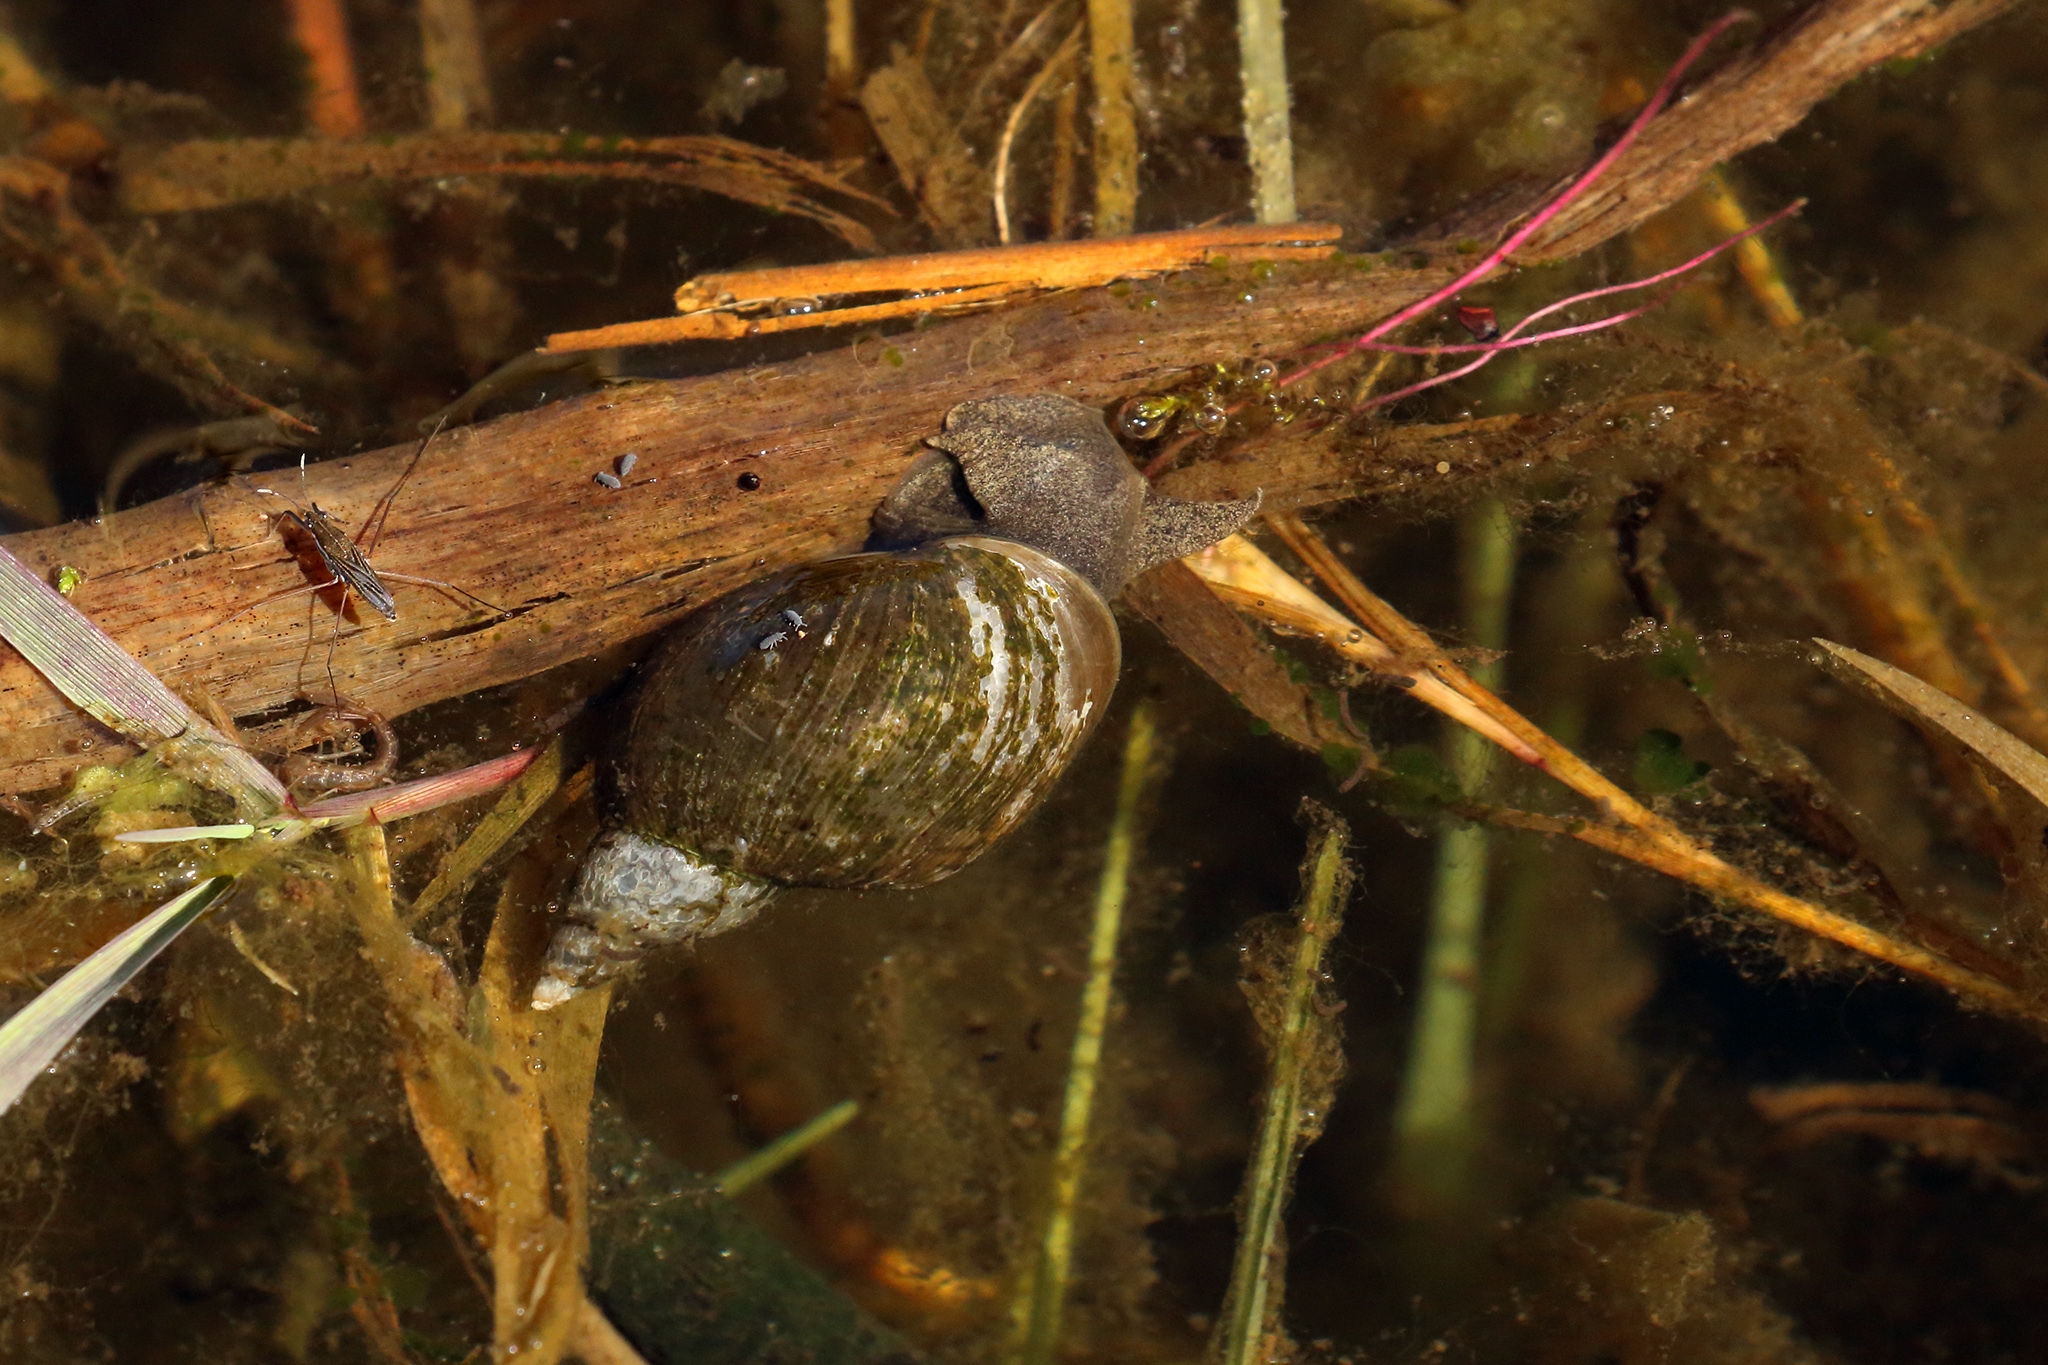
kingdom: Animalia
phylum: Mollusca
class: Gastropoda
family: Lymnaeidae
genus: Lymnaea
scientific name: Lymnaea stagnalis
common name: Great pond snail
